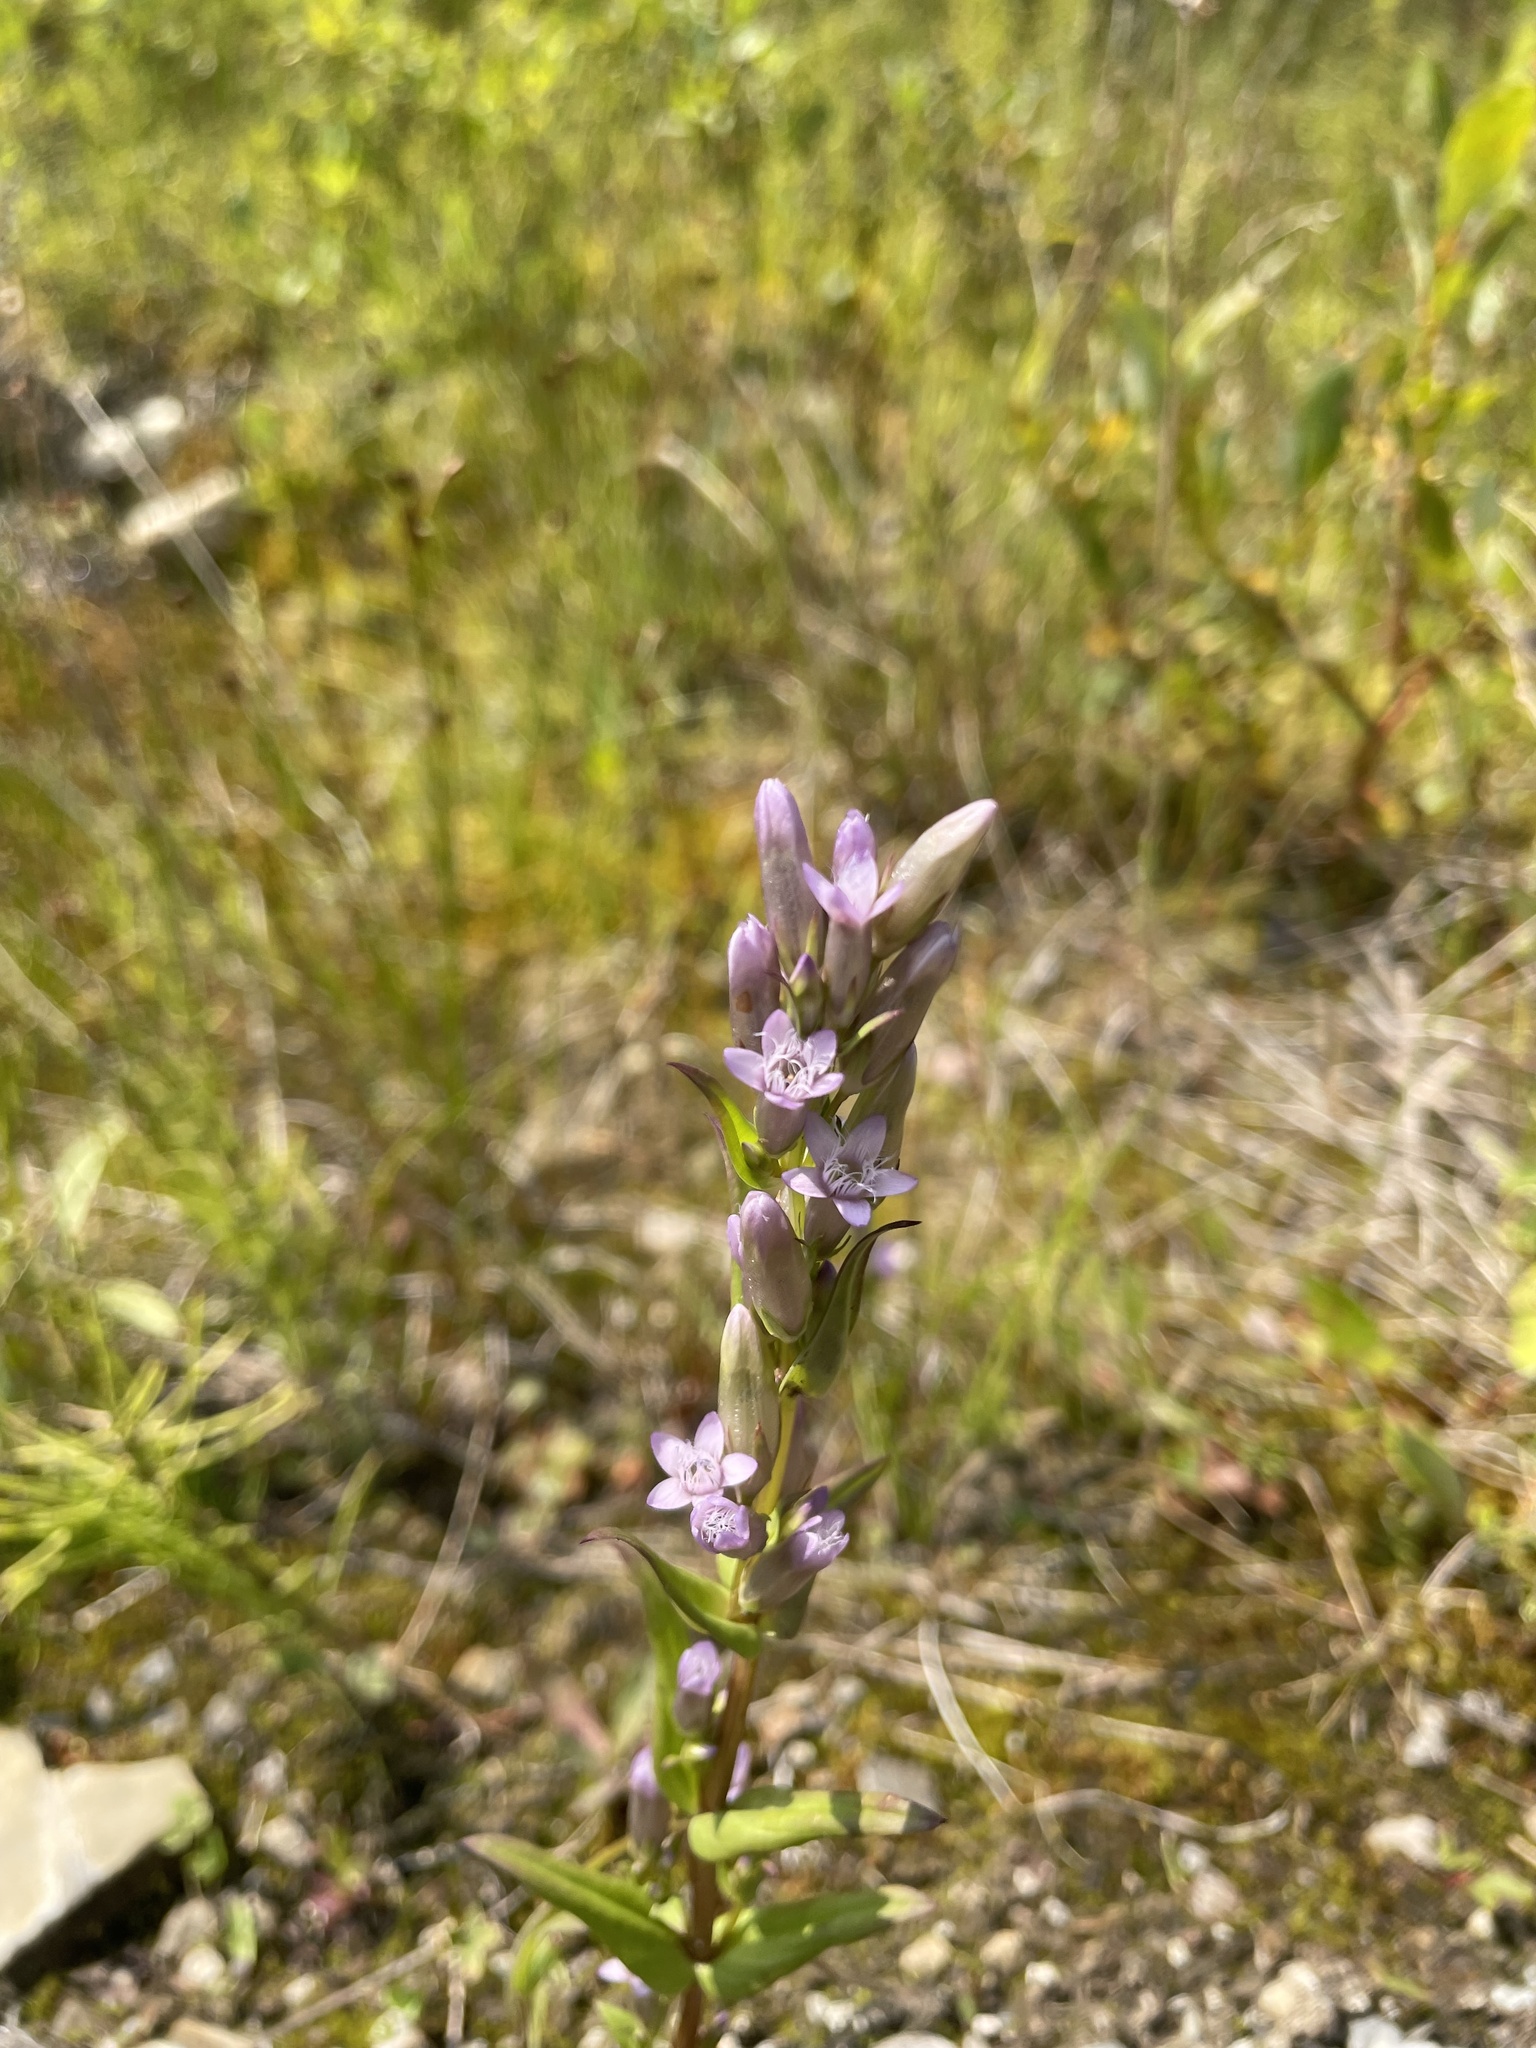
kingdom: Plantae
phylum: Tracheophyta
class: Magnoliopsida
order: Gentianales
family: Gentianaceae
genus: Gentianella
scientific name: Gentianella amarella
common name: Autumn gentian
